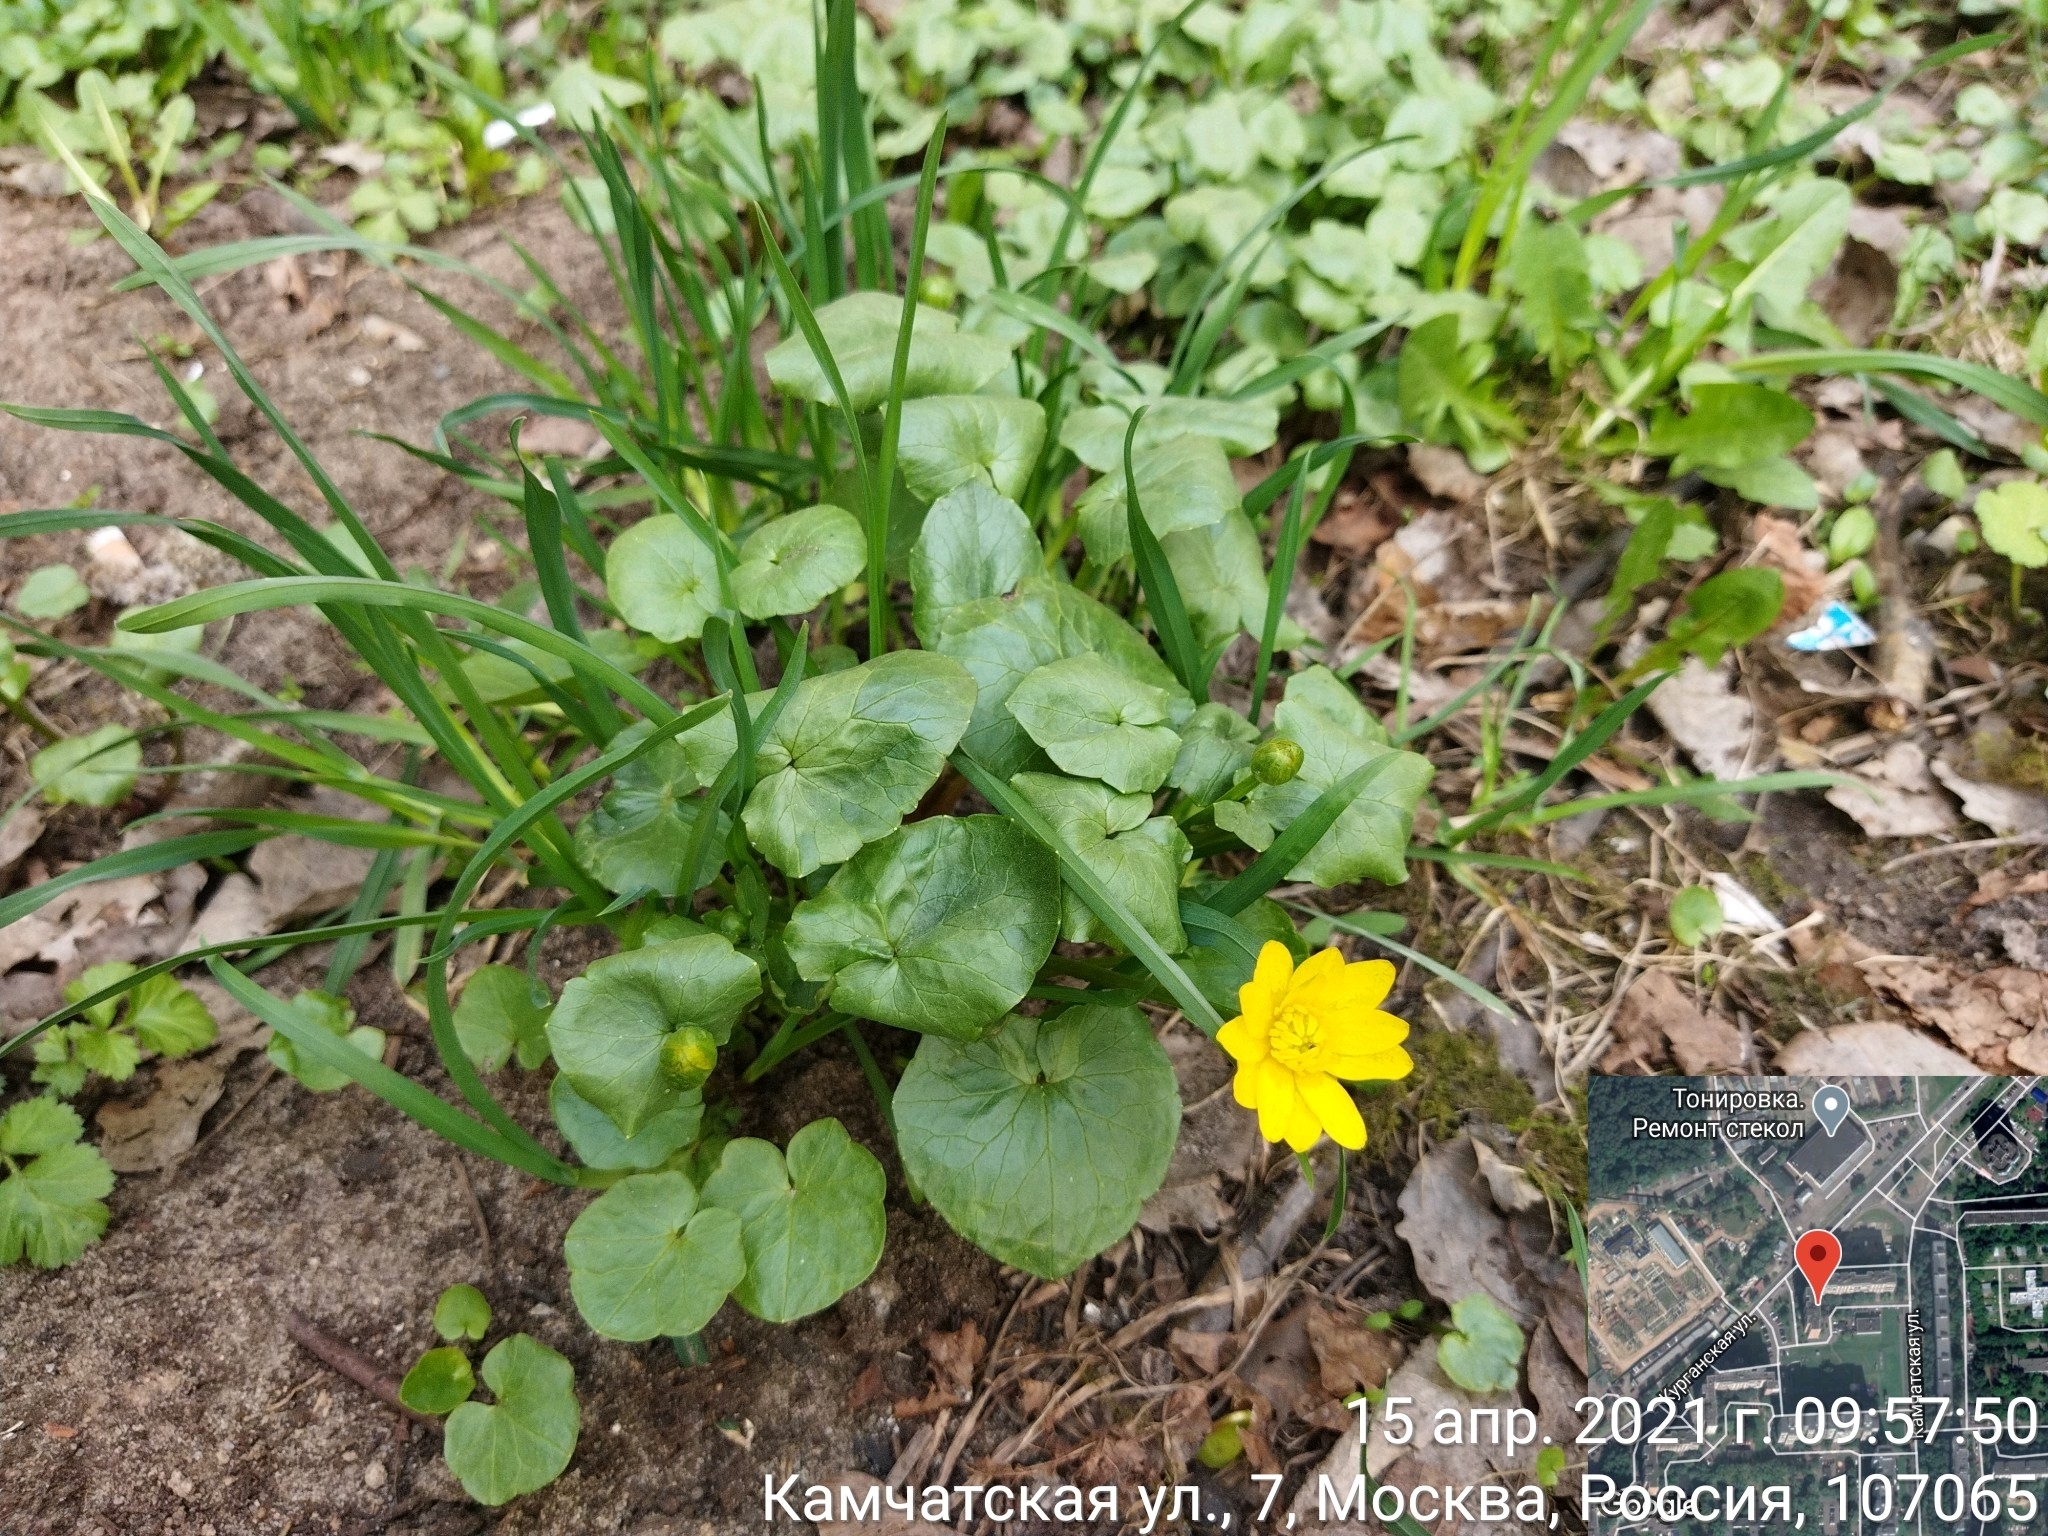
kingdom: Plantae
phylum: Tracheophyta
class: Magnoliopsida
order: Ranunculales
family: Ranunculaceae
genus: Ficaria
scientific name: Ficaria verna
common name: Lesser celandine
